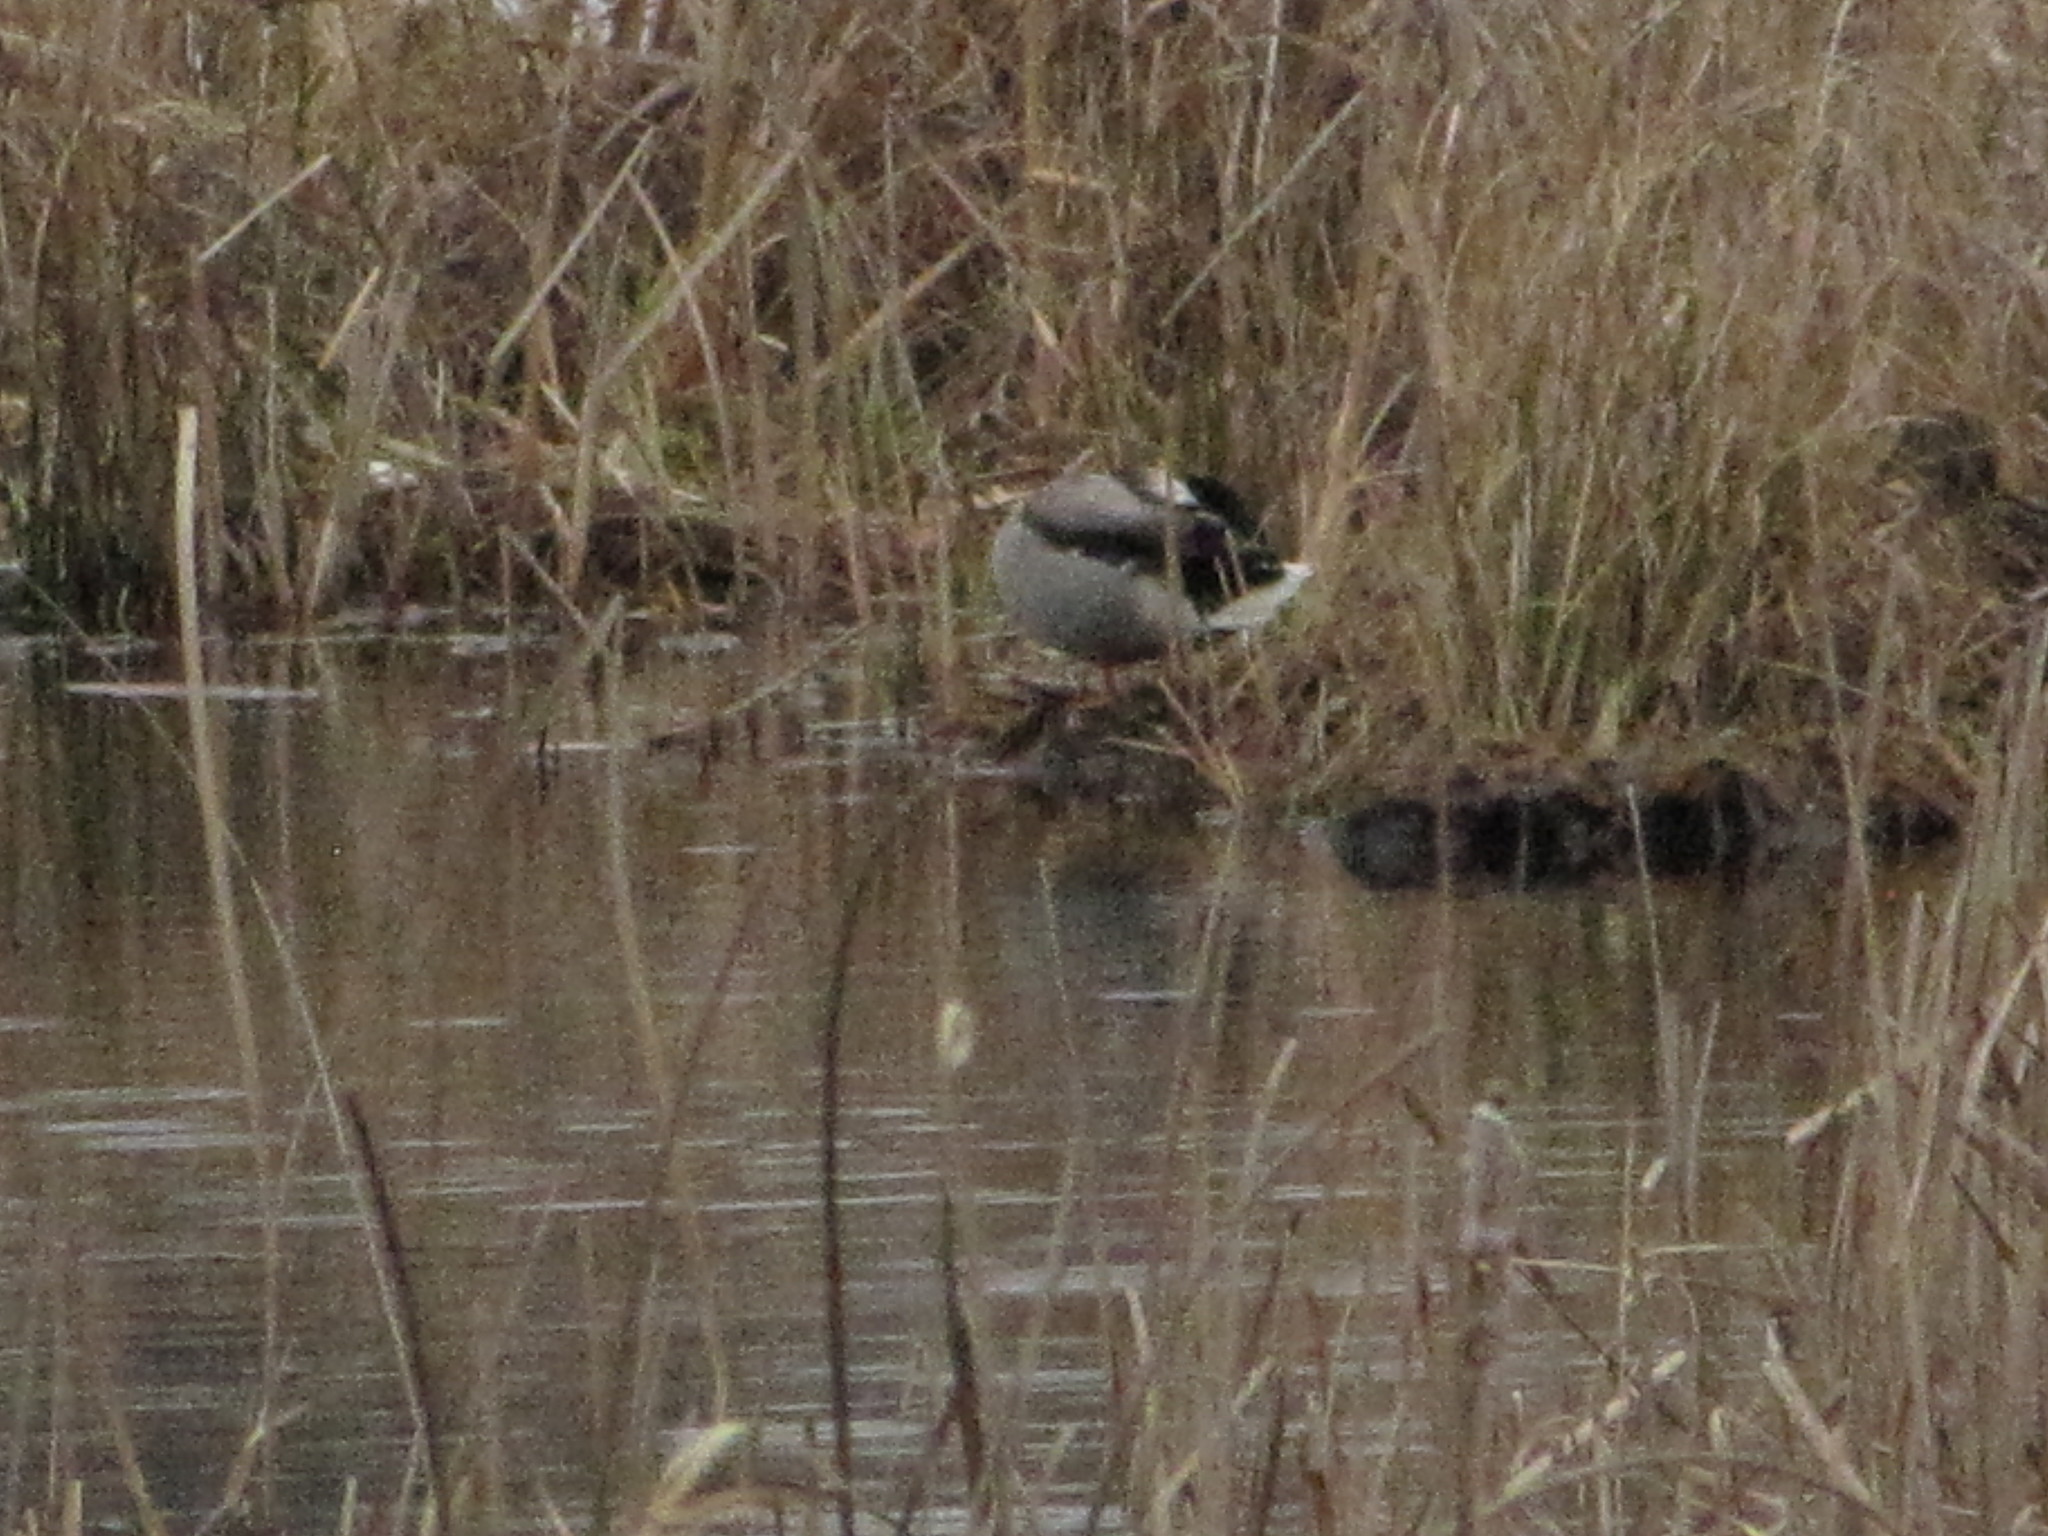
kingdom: Animalia
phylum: Chordata
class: Aves
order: Anseriformes
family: Anatidae
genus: Anas
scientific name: Anas platyrhynchos
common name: Mallard
